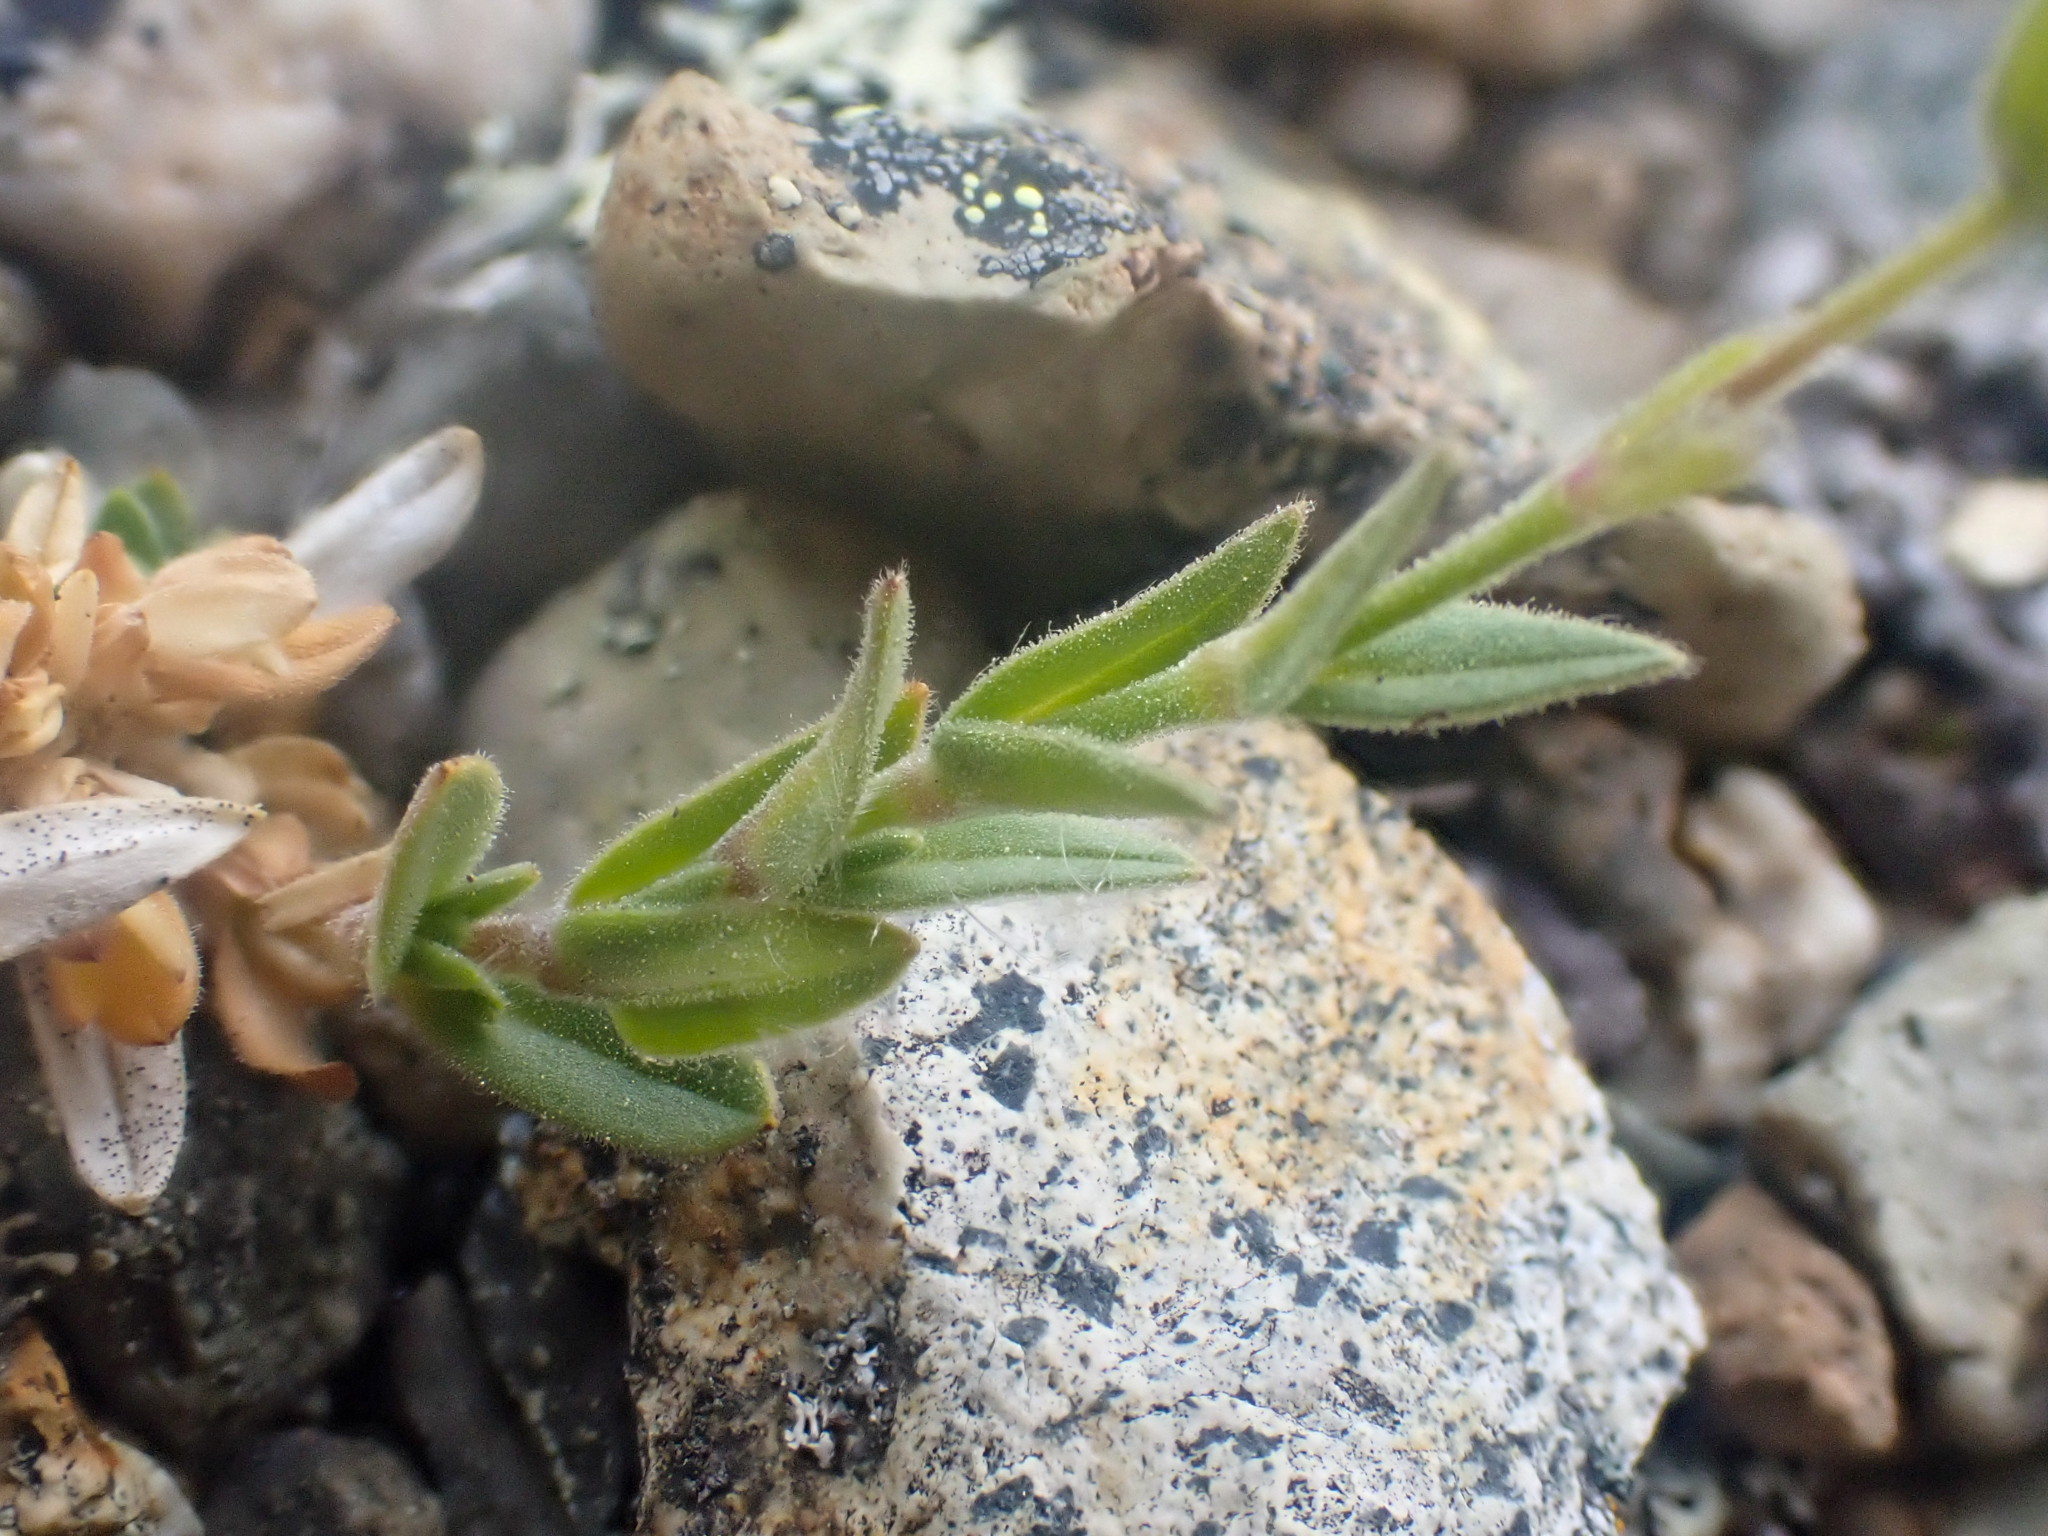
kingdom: Plantae
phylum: Tracheophyta
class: Magnoliopsida
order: Caryophyllales
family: Caryophyllaceae
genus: Cerastium
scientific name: Cerastium arvense
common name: Field mouse-ear
